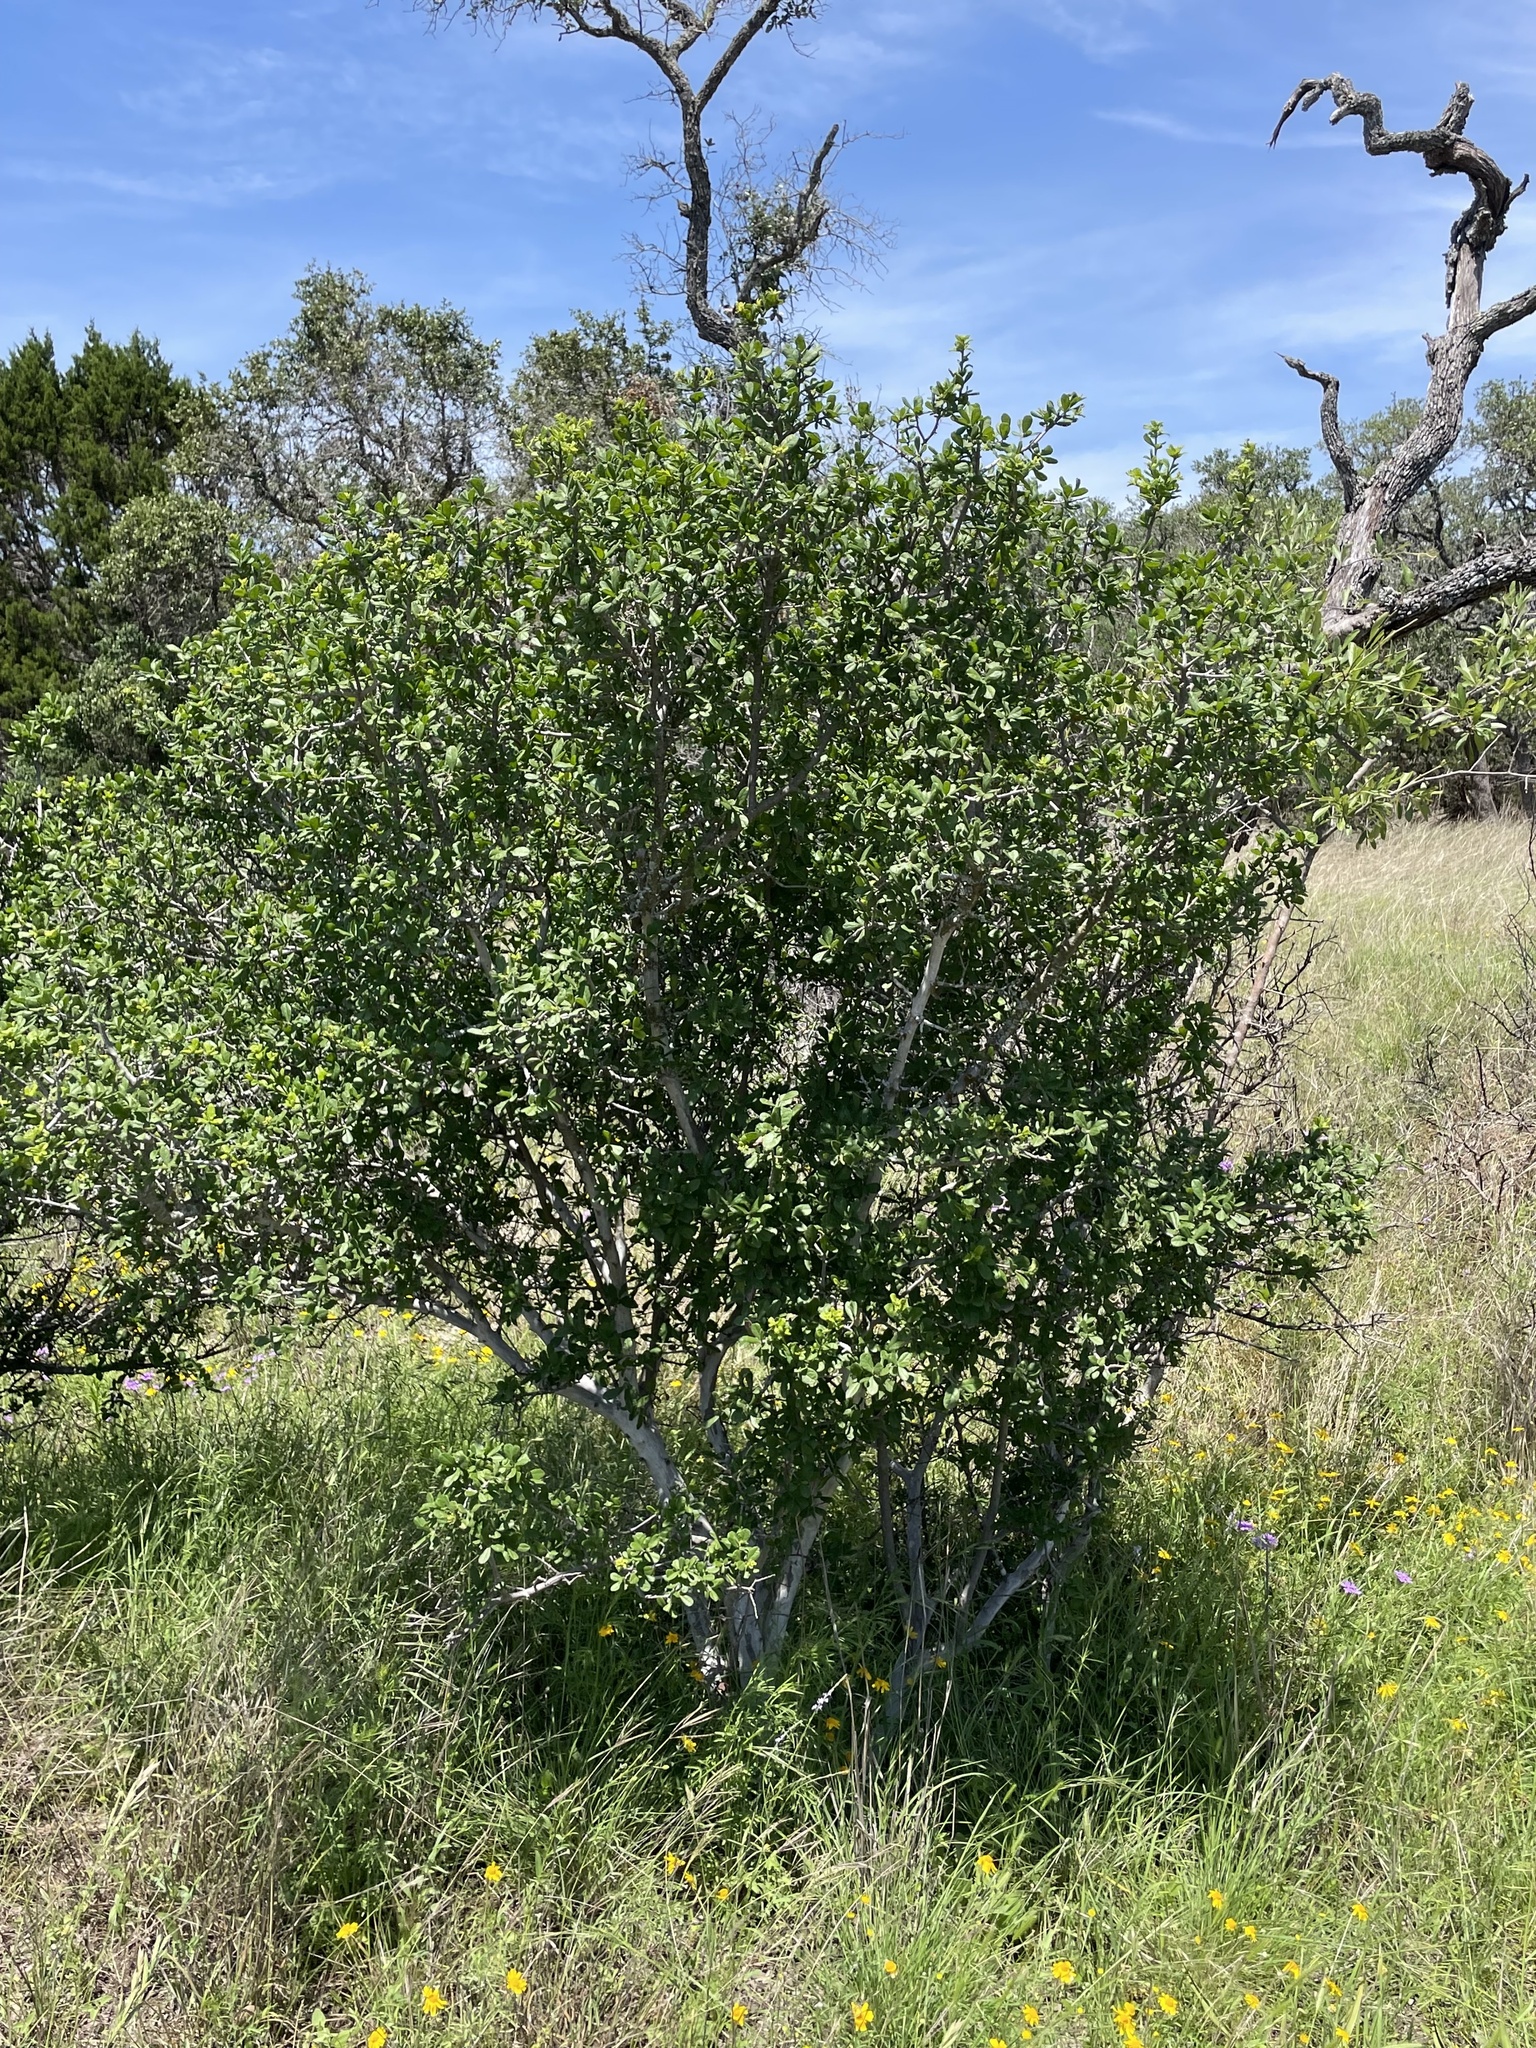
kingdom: Plantae
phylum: Tracheophyta
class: Magnoliopsida
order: Ericales
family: Ebenaceae
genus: Diospyros
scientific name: Diospyros texana
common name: Texas persimmon
